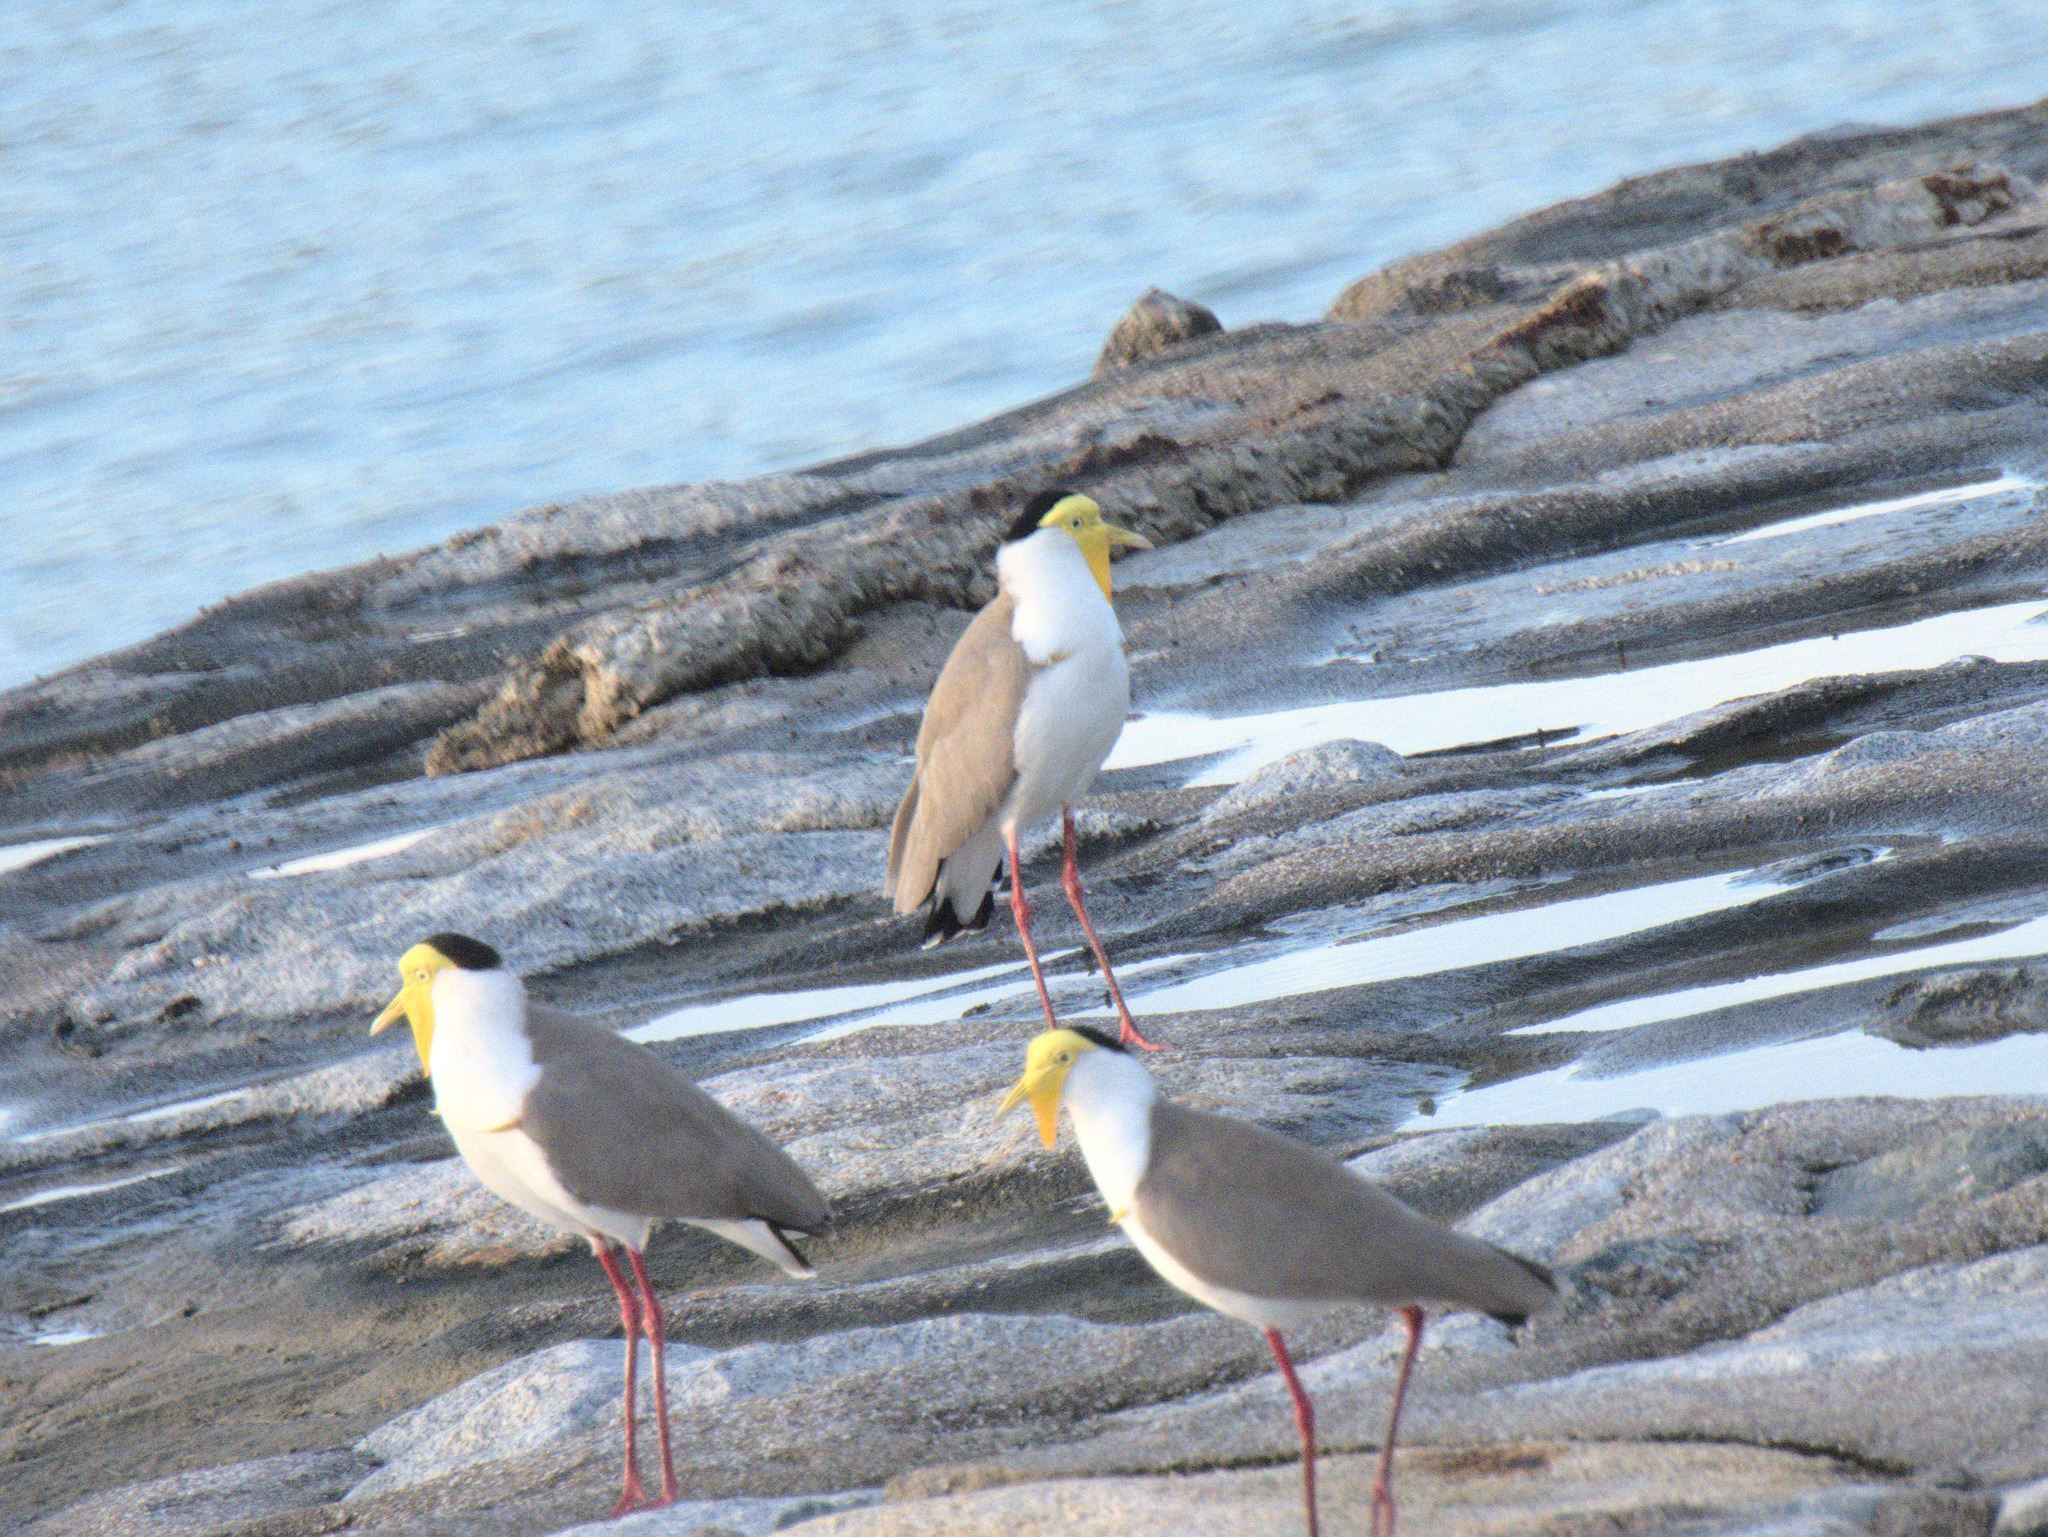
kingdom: Animalia
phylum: Chordata
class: Aves
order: Charadriiformes
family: Charadriidae
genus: Vanellus
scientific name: Vanellus miles
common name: Masked lapwing
